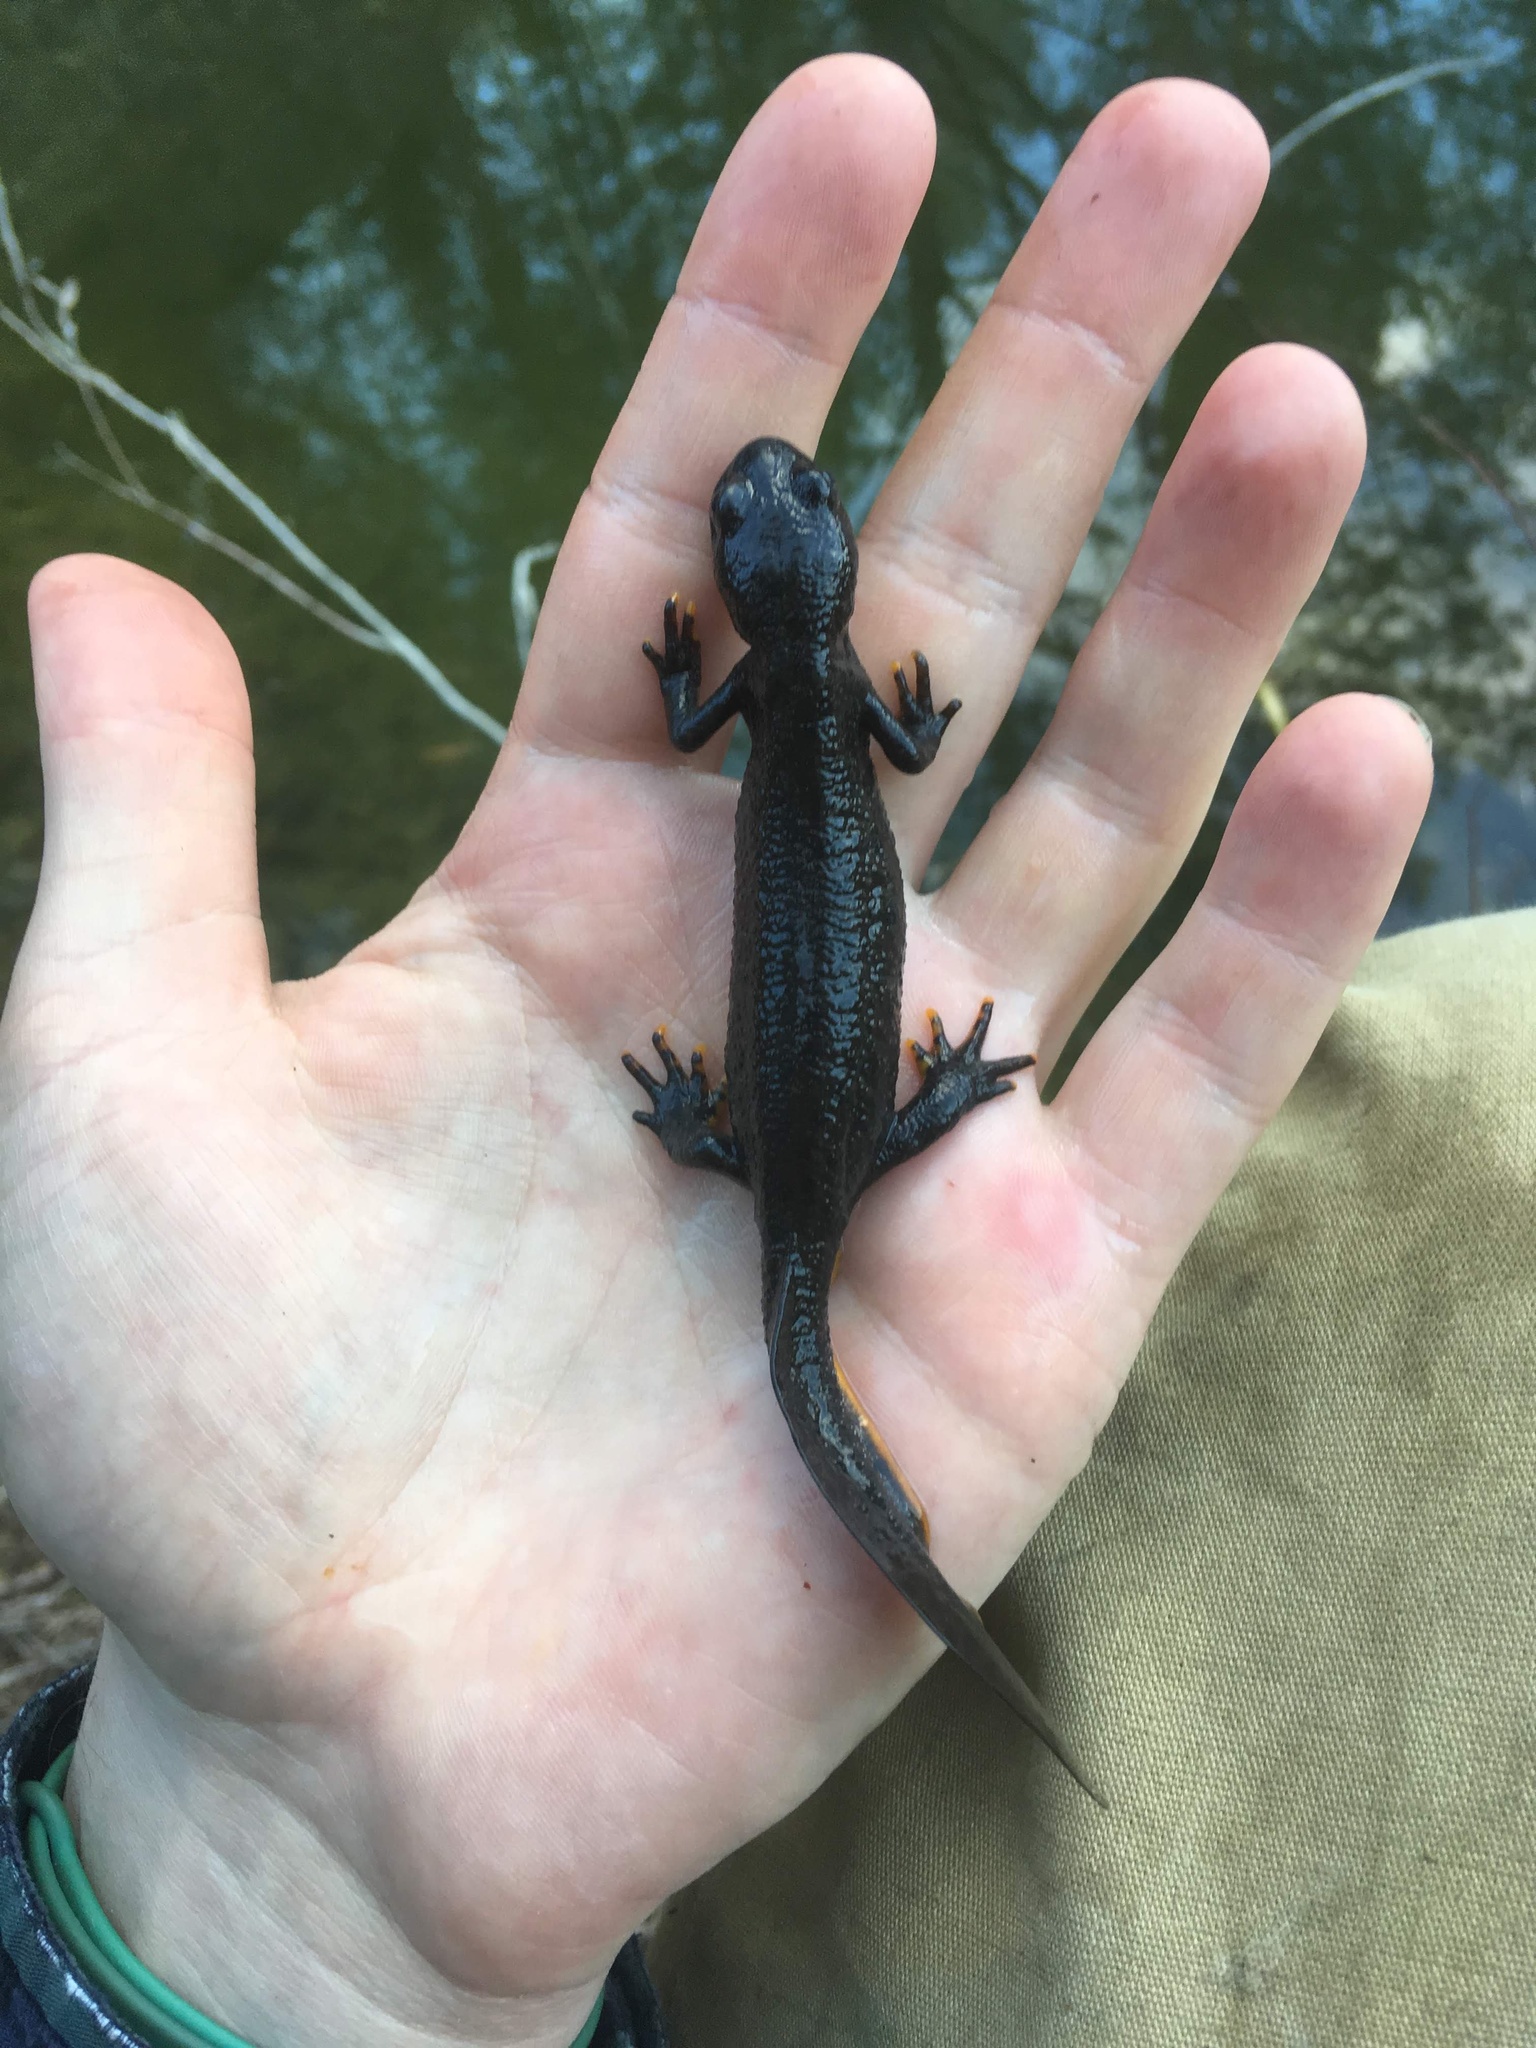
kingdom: Animalia
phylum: Chordata
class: Amphibia
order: Caudata
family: Salamandridae
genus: Triturus
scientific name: Triturus cristatus
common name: Crested newt
